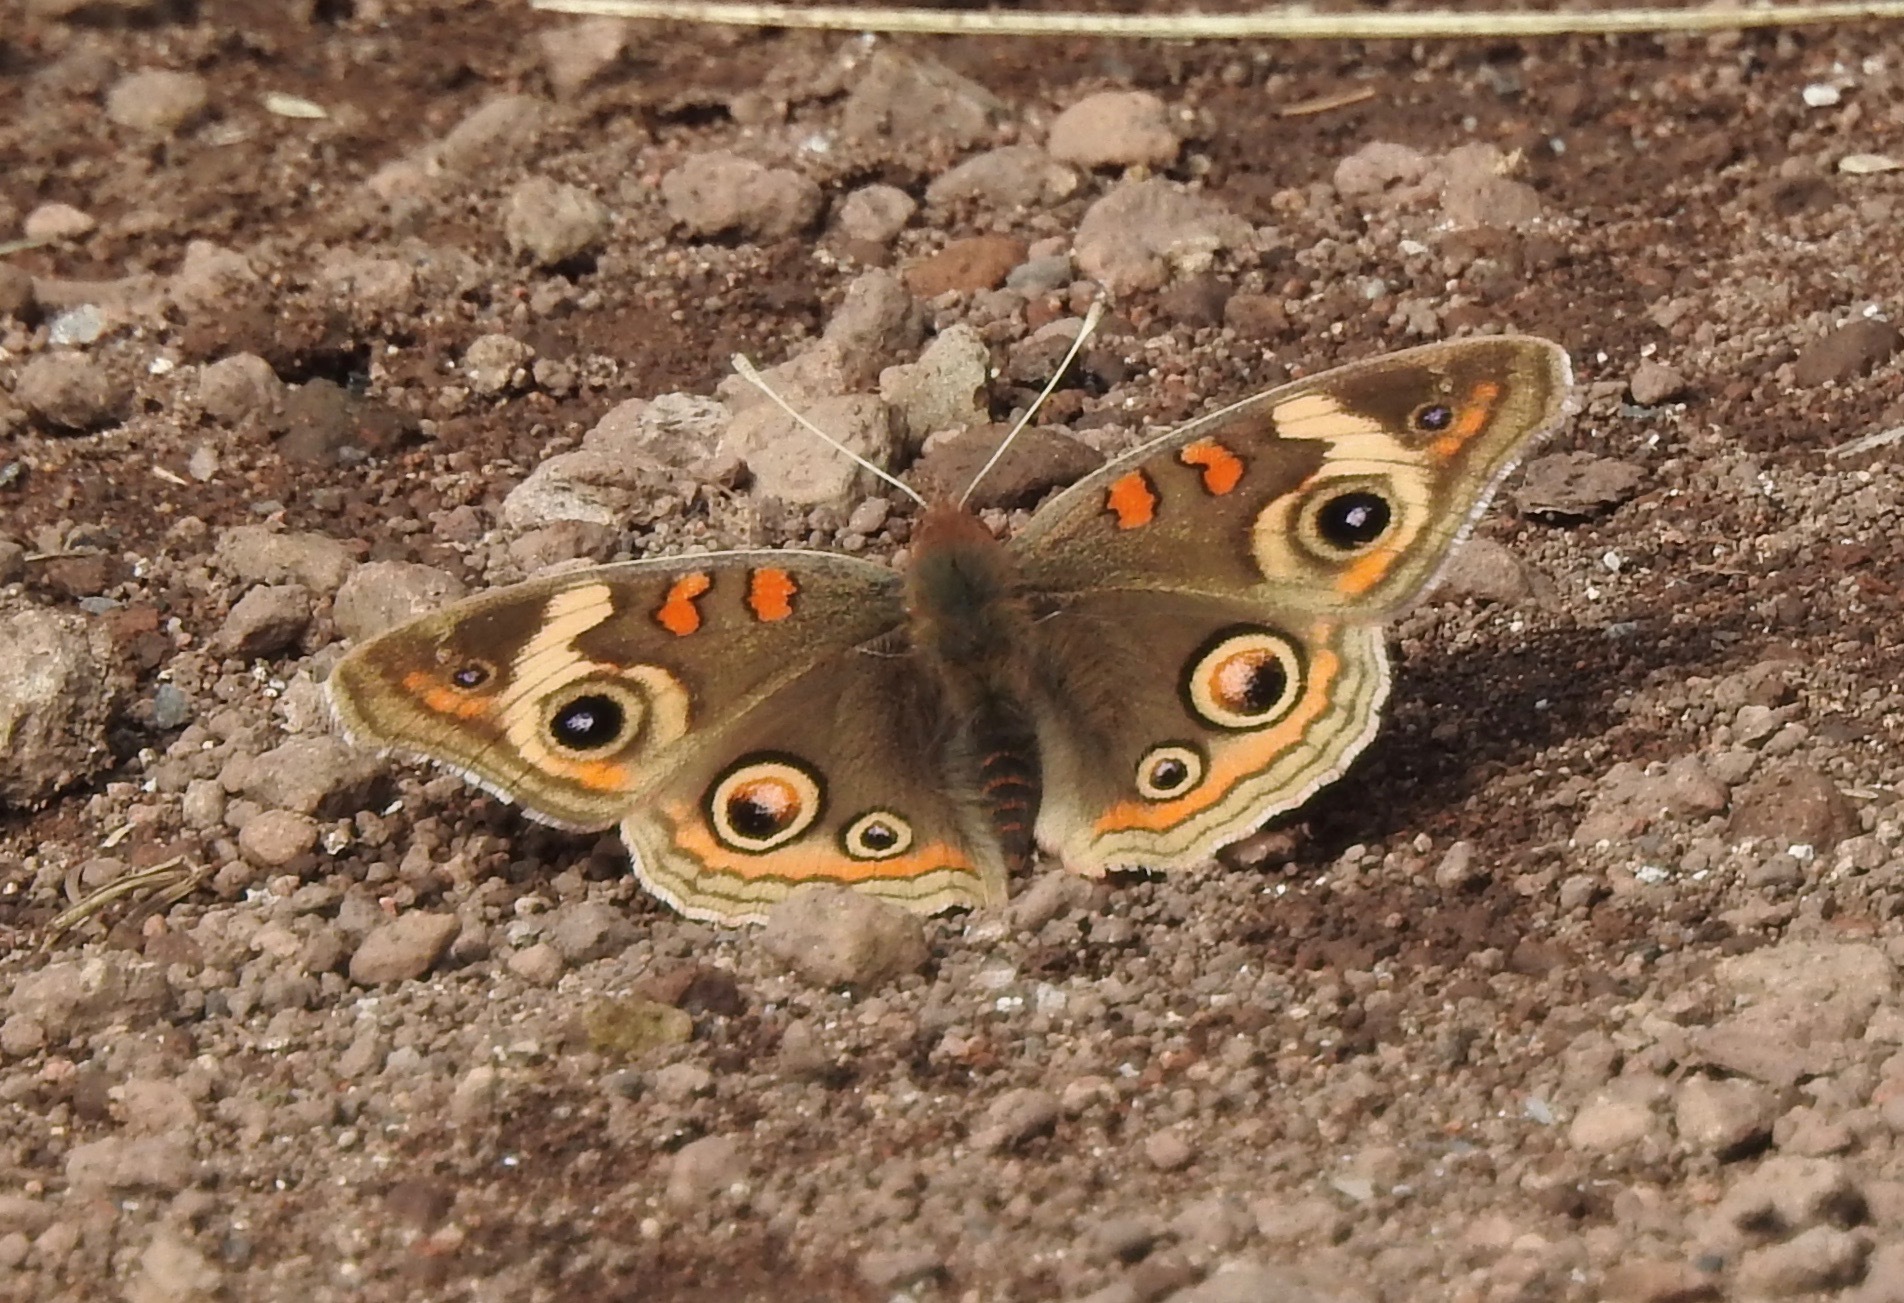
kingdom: Animalia
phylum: Arthropoda
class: Insecta
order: Lepidoptera
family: Nymphalidae
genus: Junonia
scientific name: Junonia grisea
